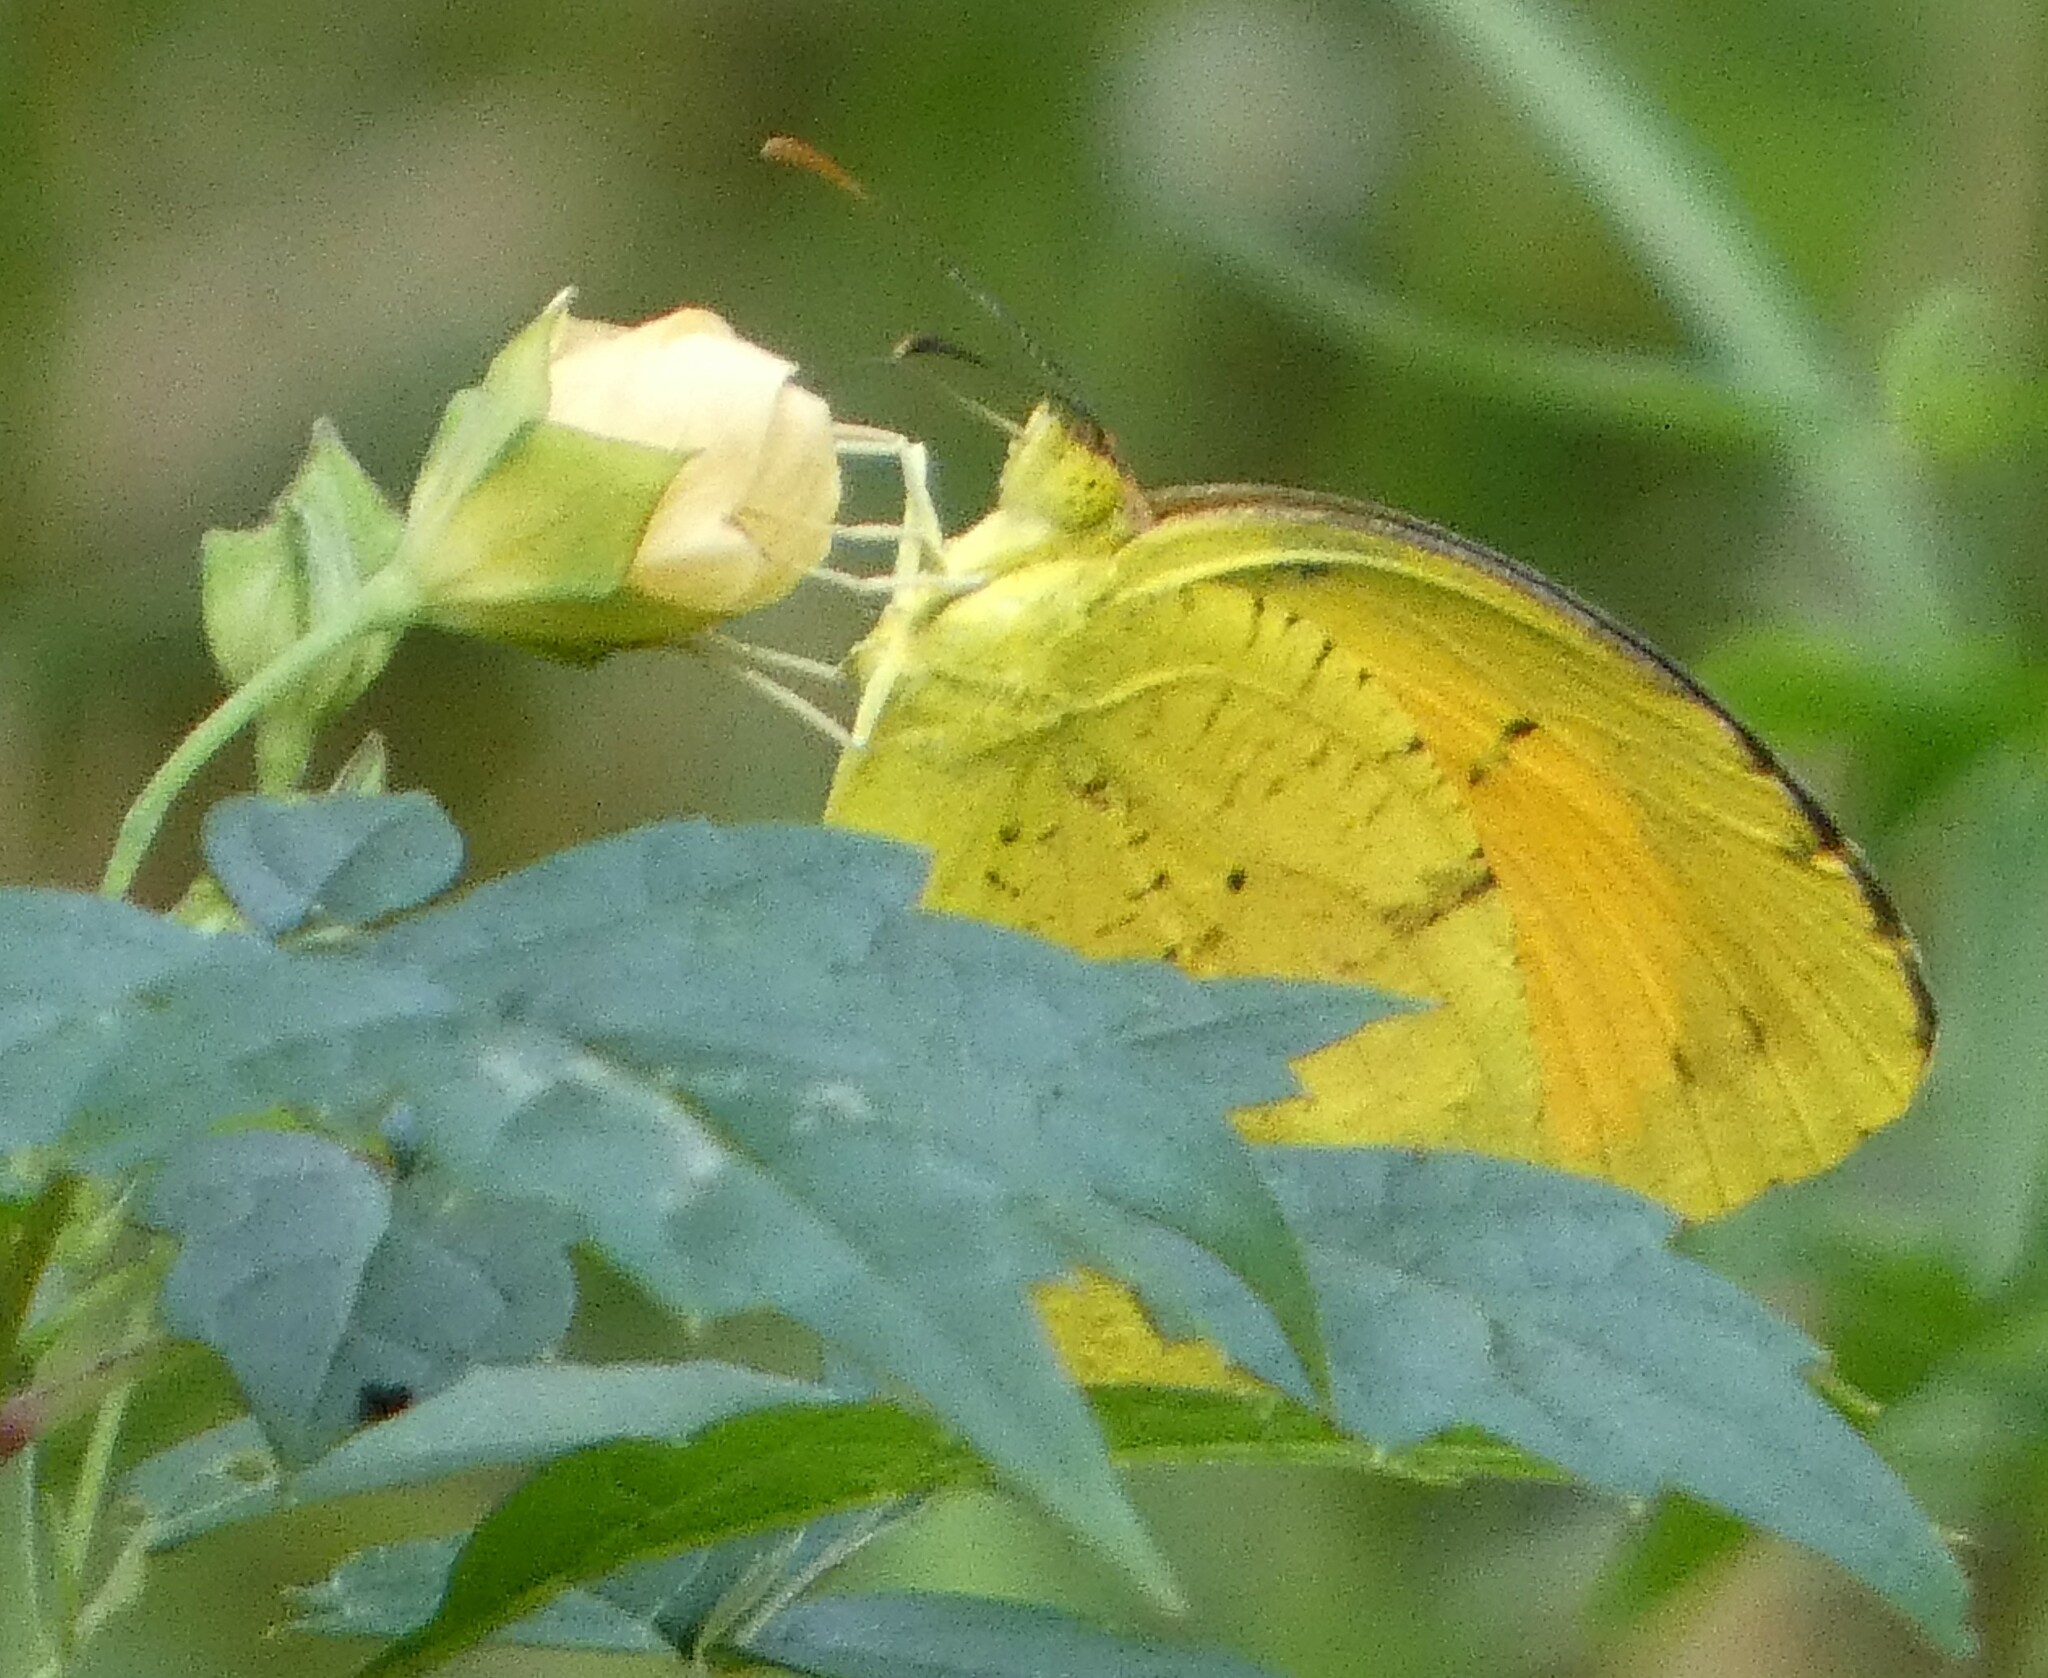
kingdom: Animalia
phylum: Arthropoda
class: Insecta
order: Lepidoptera
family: Pieridae
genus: Abaeis
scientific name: Abaeis nicippe
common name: Sleepy orange
